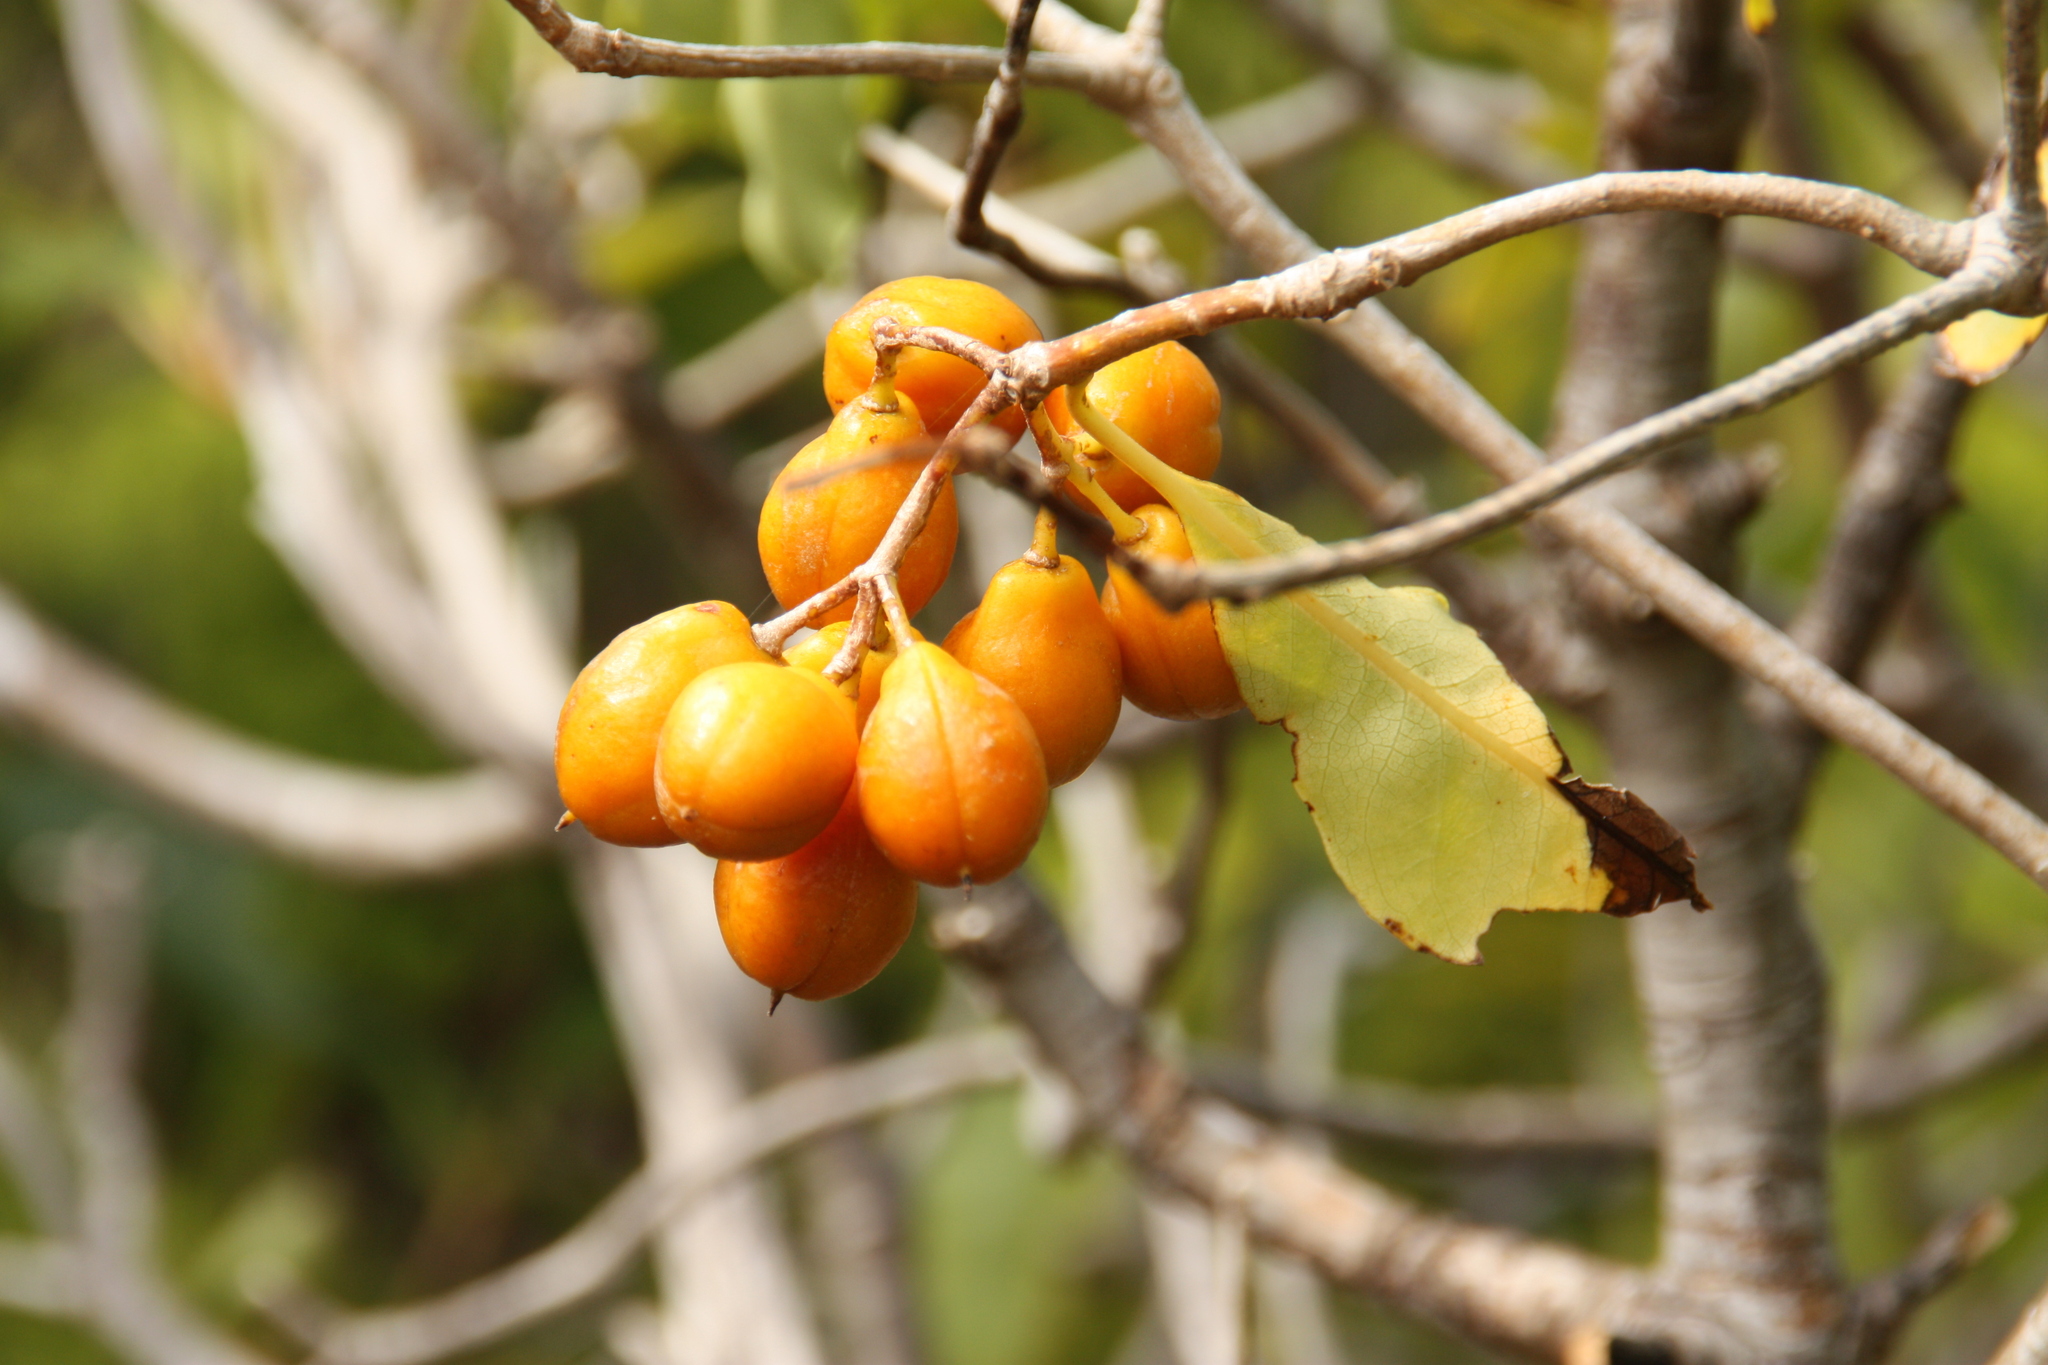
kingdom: Plantae
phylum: Tracheophyta
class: Magnoliopsida
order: Apiales
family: Pittosporaceae
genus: Pittosporum
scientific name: Pittosporum undulatum
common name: Australian cheesewood
